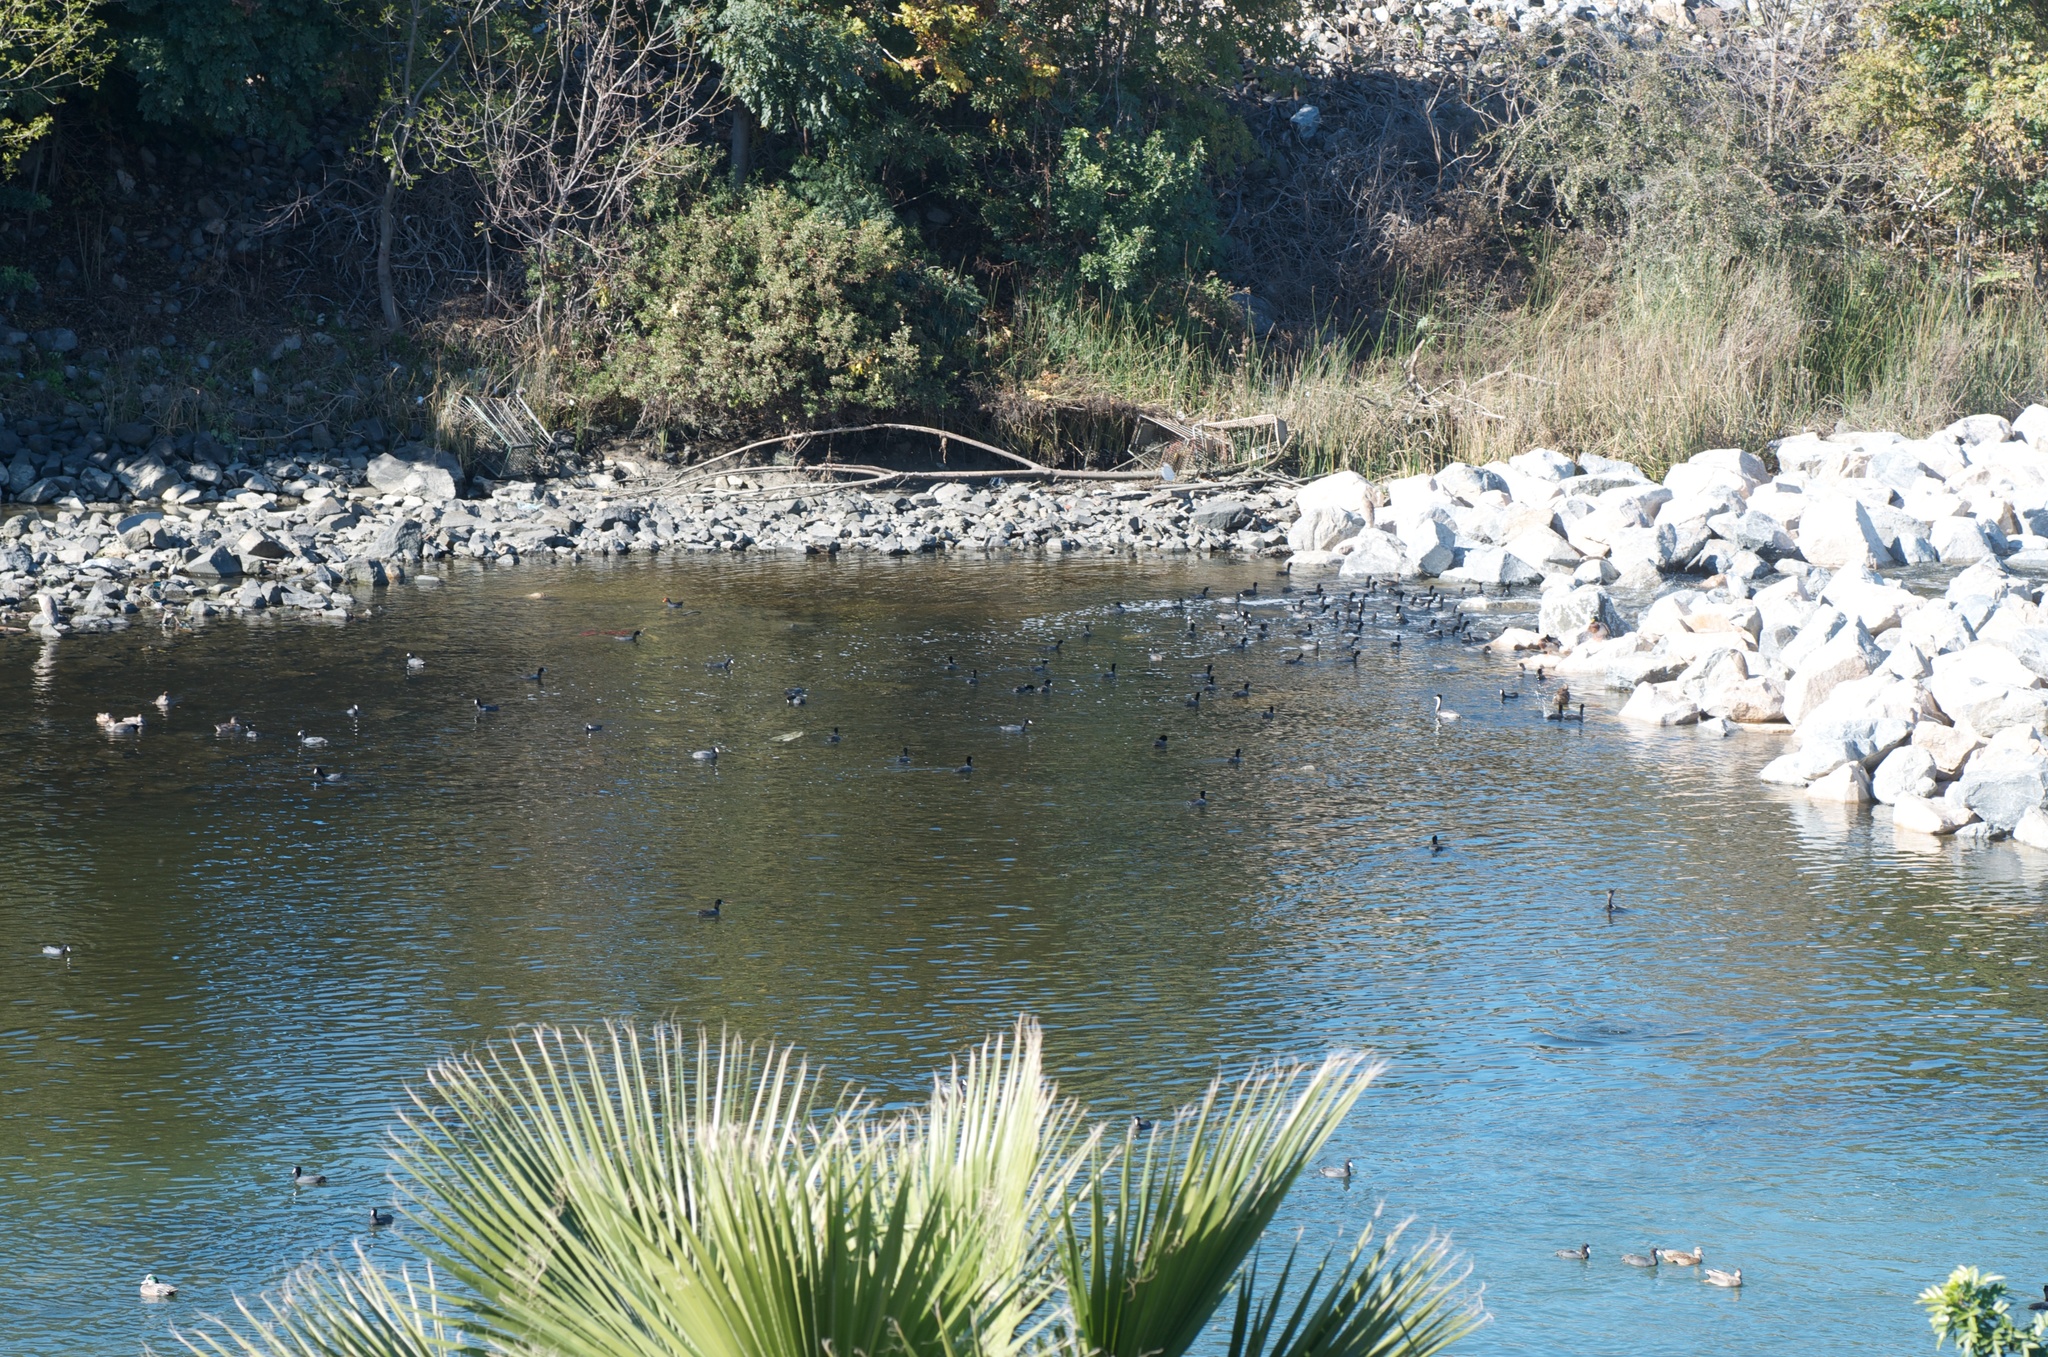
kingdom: Animalia
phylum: Chordata
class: Aves
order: Gruiformes
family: Rallidae
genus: Fulica
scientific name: Fulica americana
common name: American coot
